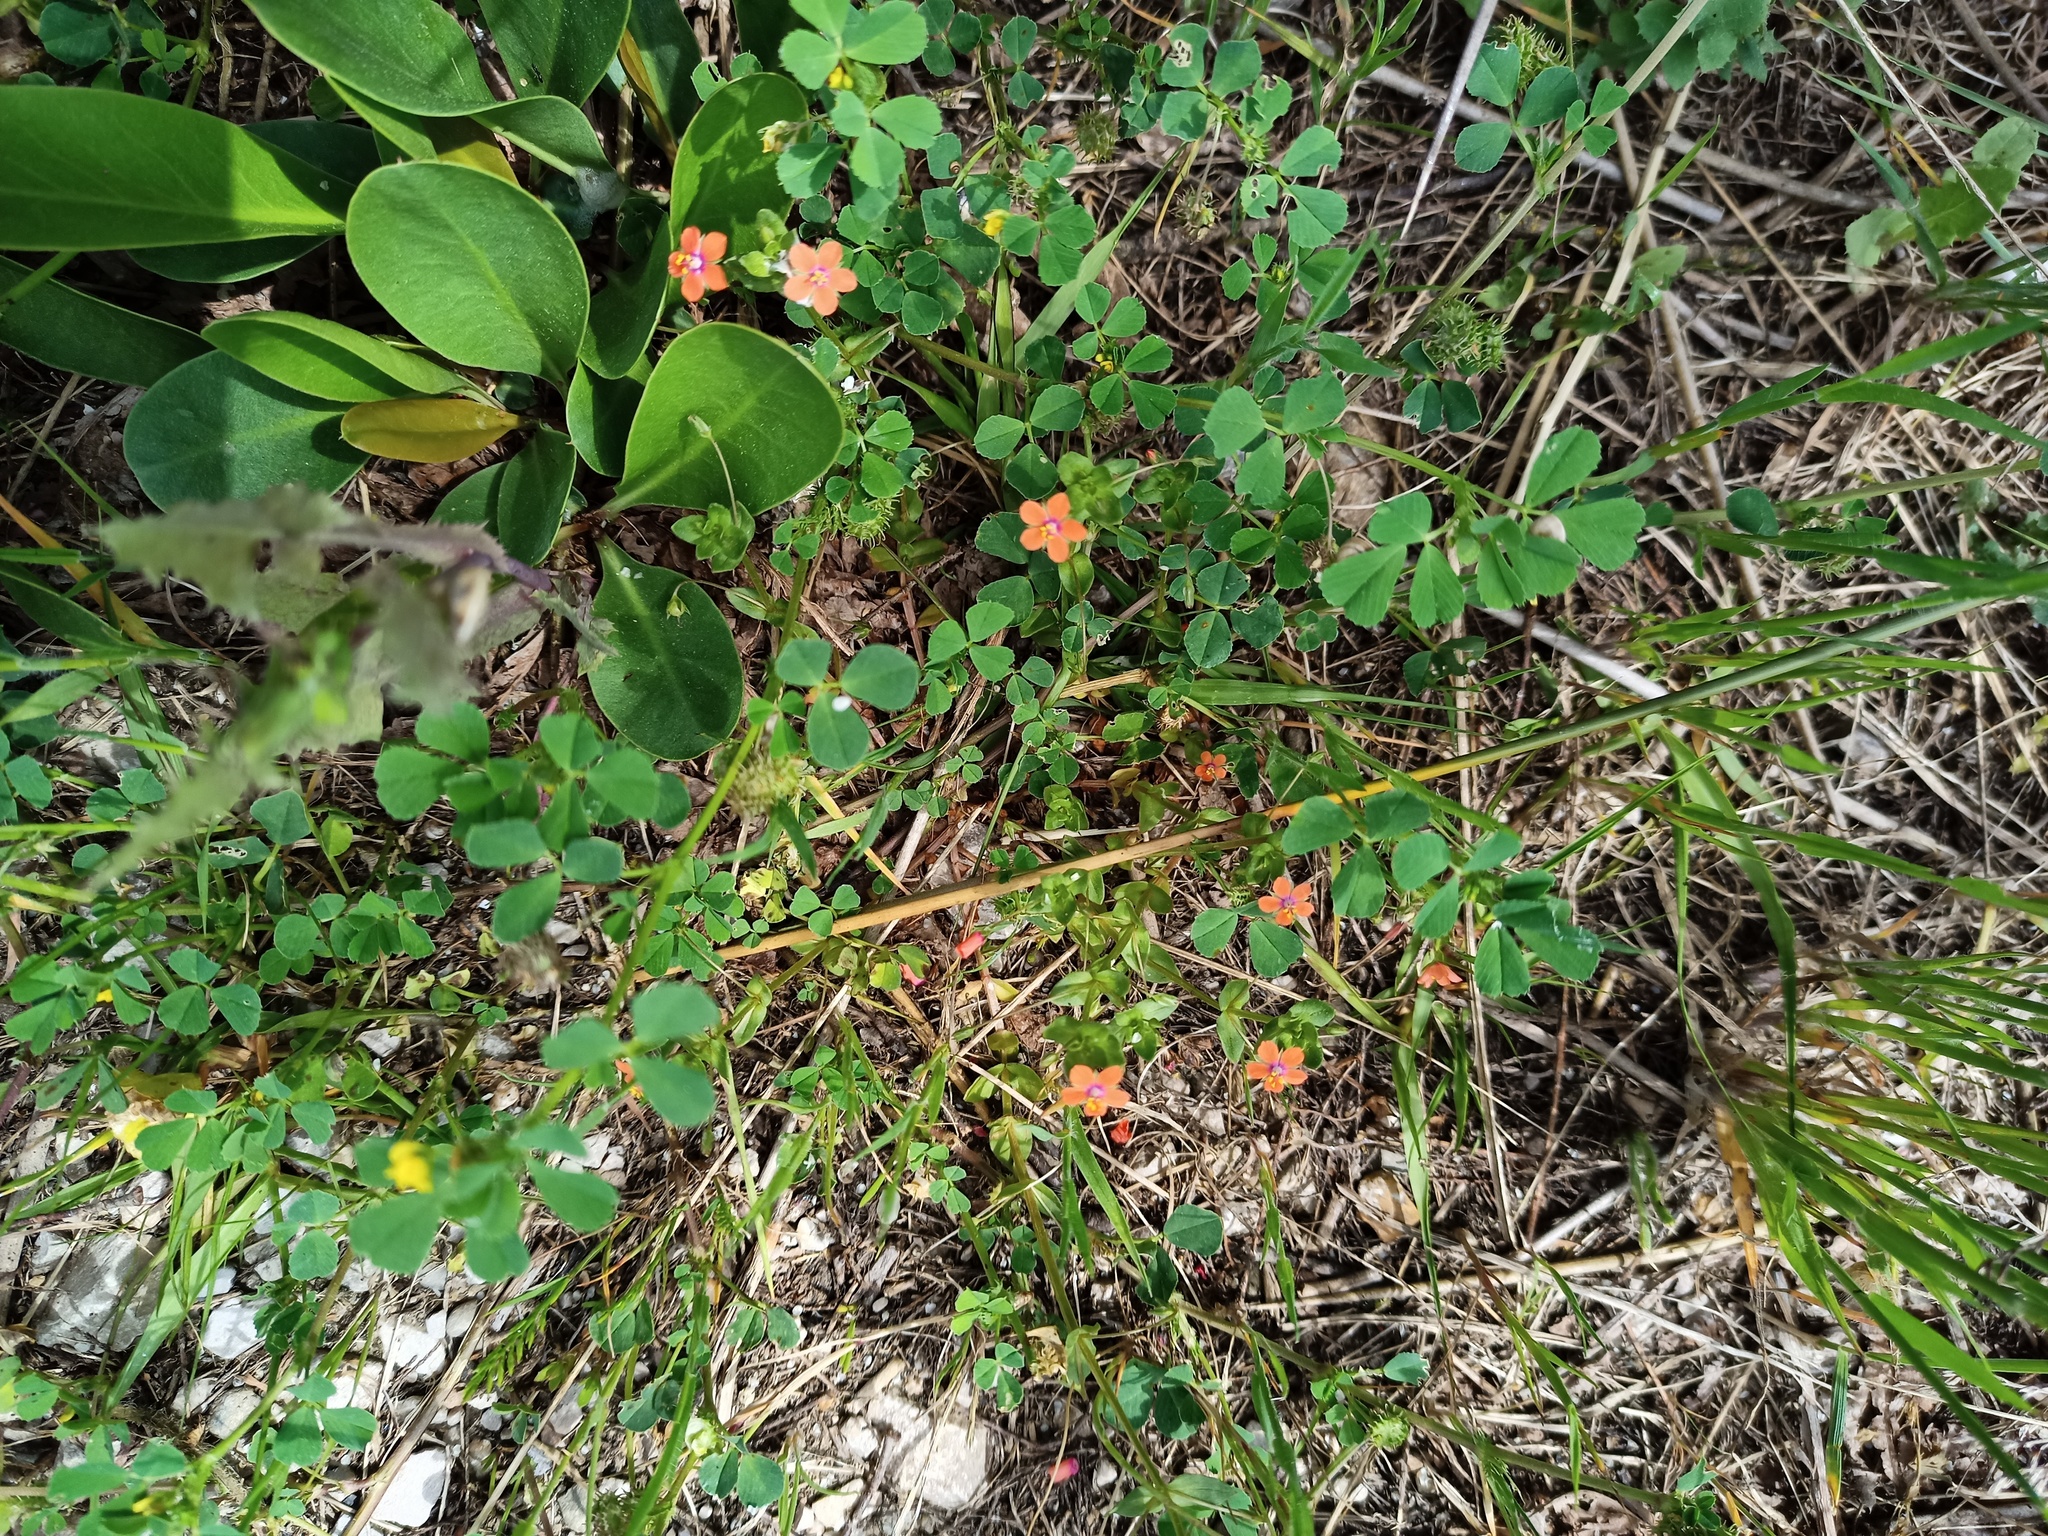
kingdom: Plantae
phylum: Tracheophyta
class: Magnoliopsida
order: Ericales
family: Primulaceae
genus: Lysimachia
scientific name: Lysimachia arvensis
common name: Scarlet pimpernel
